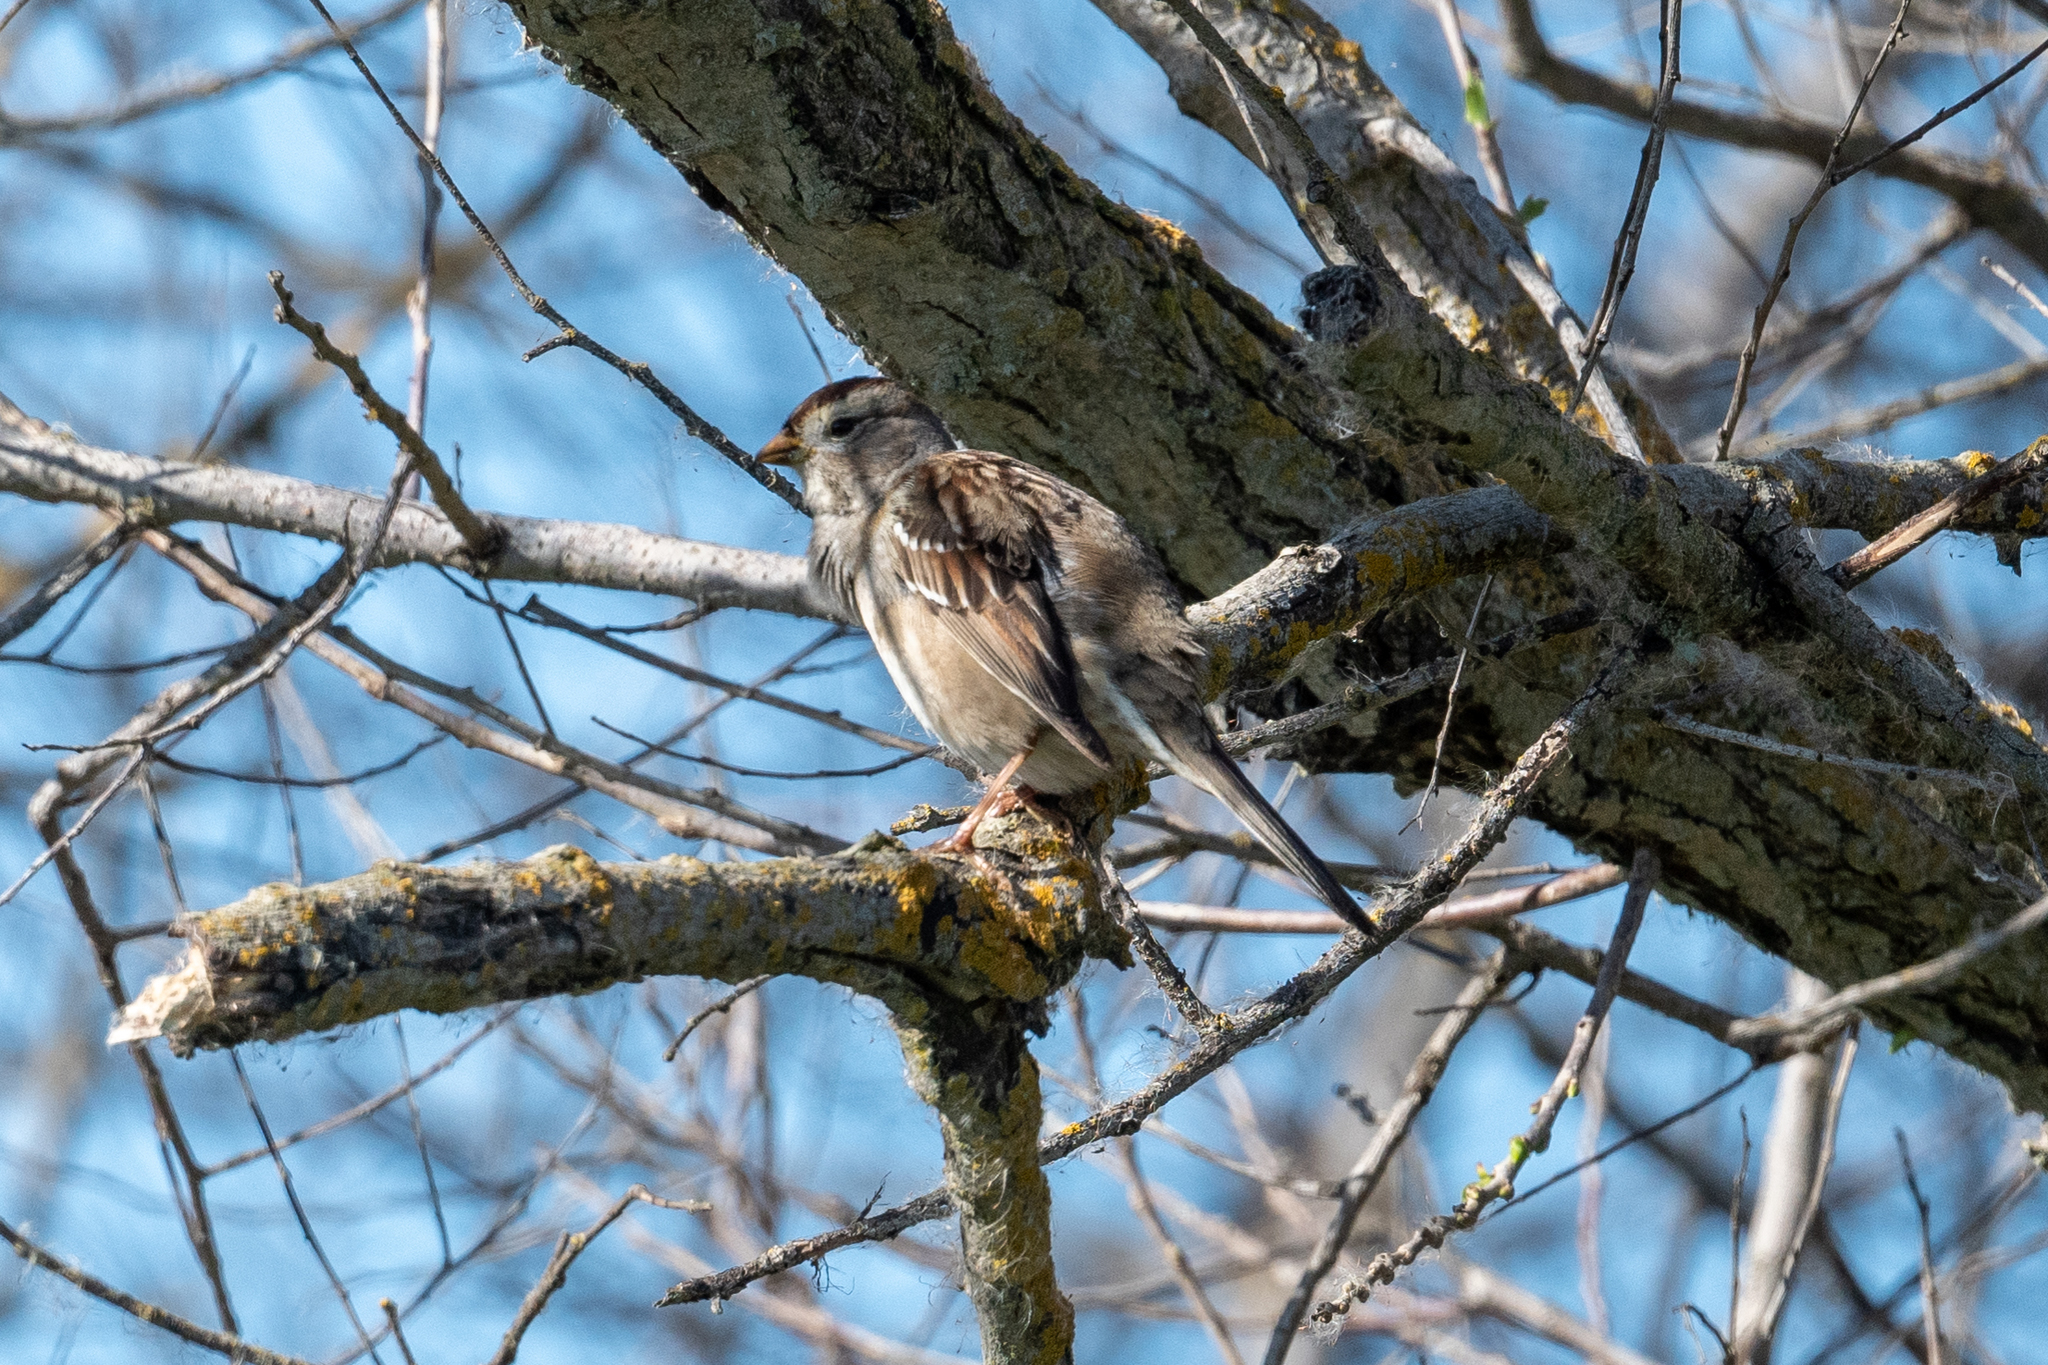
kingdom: Animalia
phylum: Chordata
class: Aves
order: Passeriformes
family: Passerellidae
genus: Zonotrichia
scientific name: Zonotrichia leucophrys
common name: White-crowned sparrow
